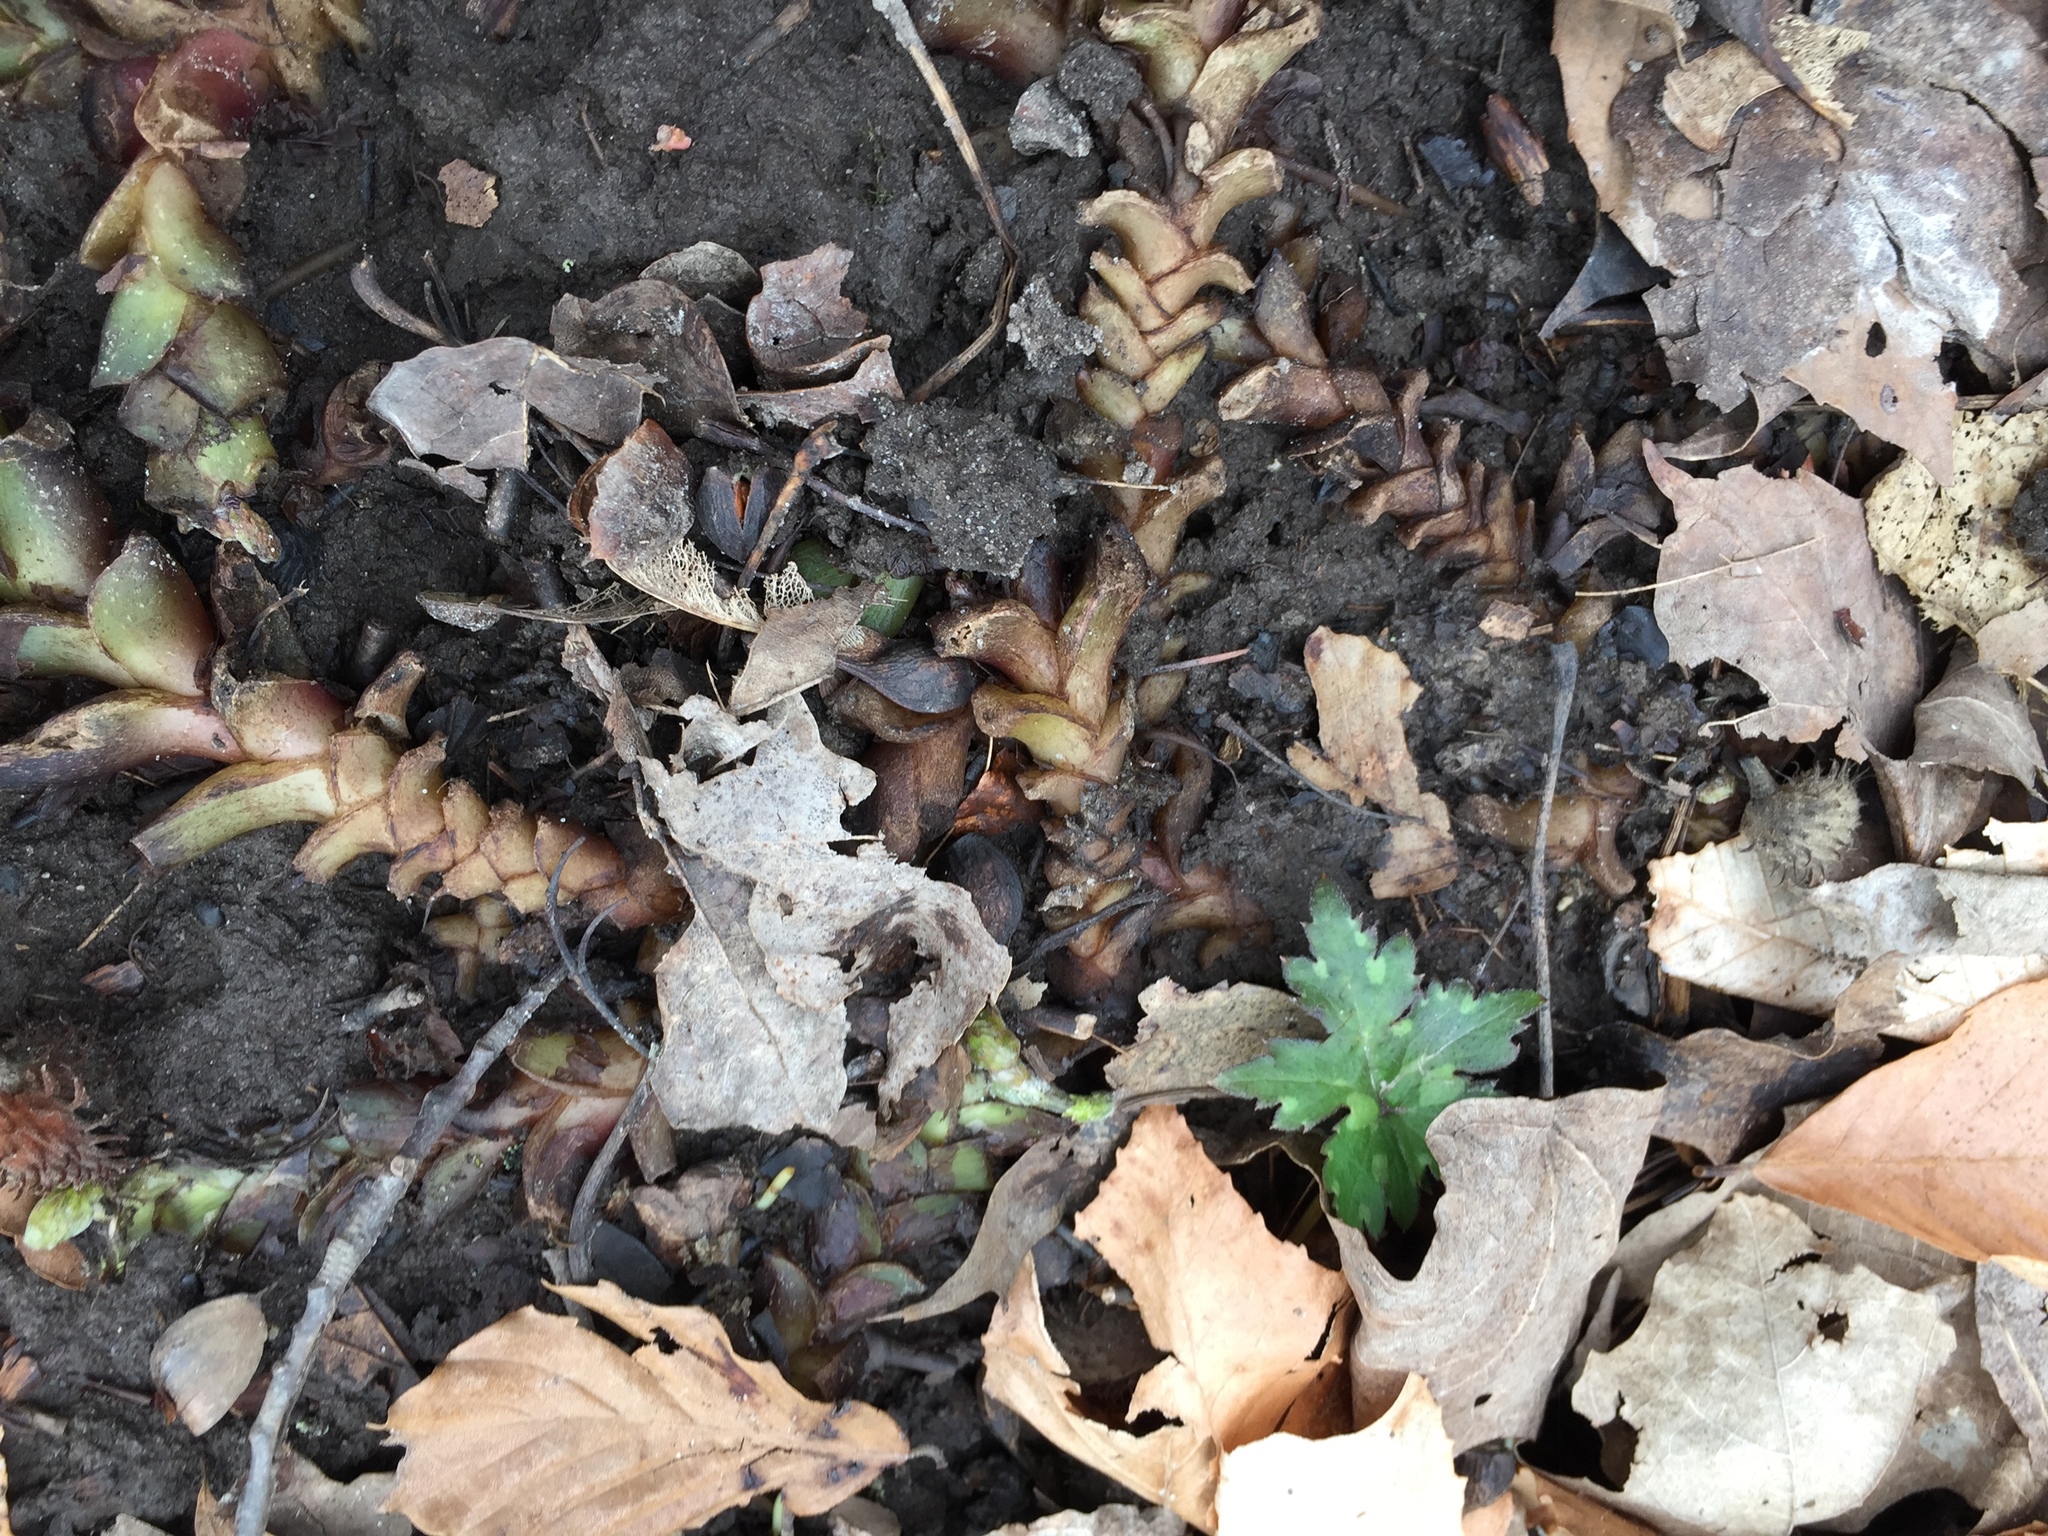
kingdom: Plantae
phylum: Tracheophyta
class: Magnoliopsida
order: Boraginales
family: Hydrophyllaceae
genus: Hydrophyllum
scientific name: Hydrophyllum canadense
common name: Canada waterleaf
